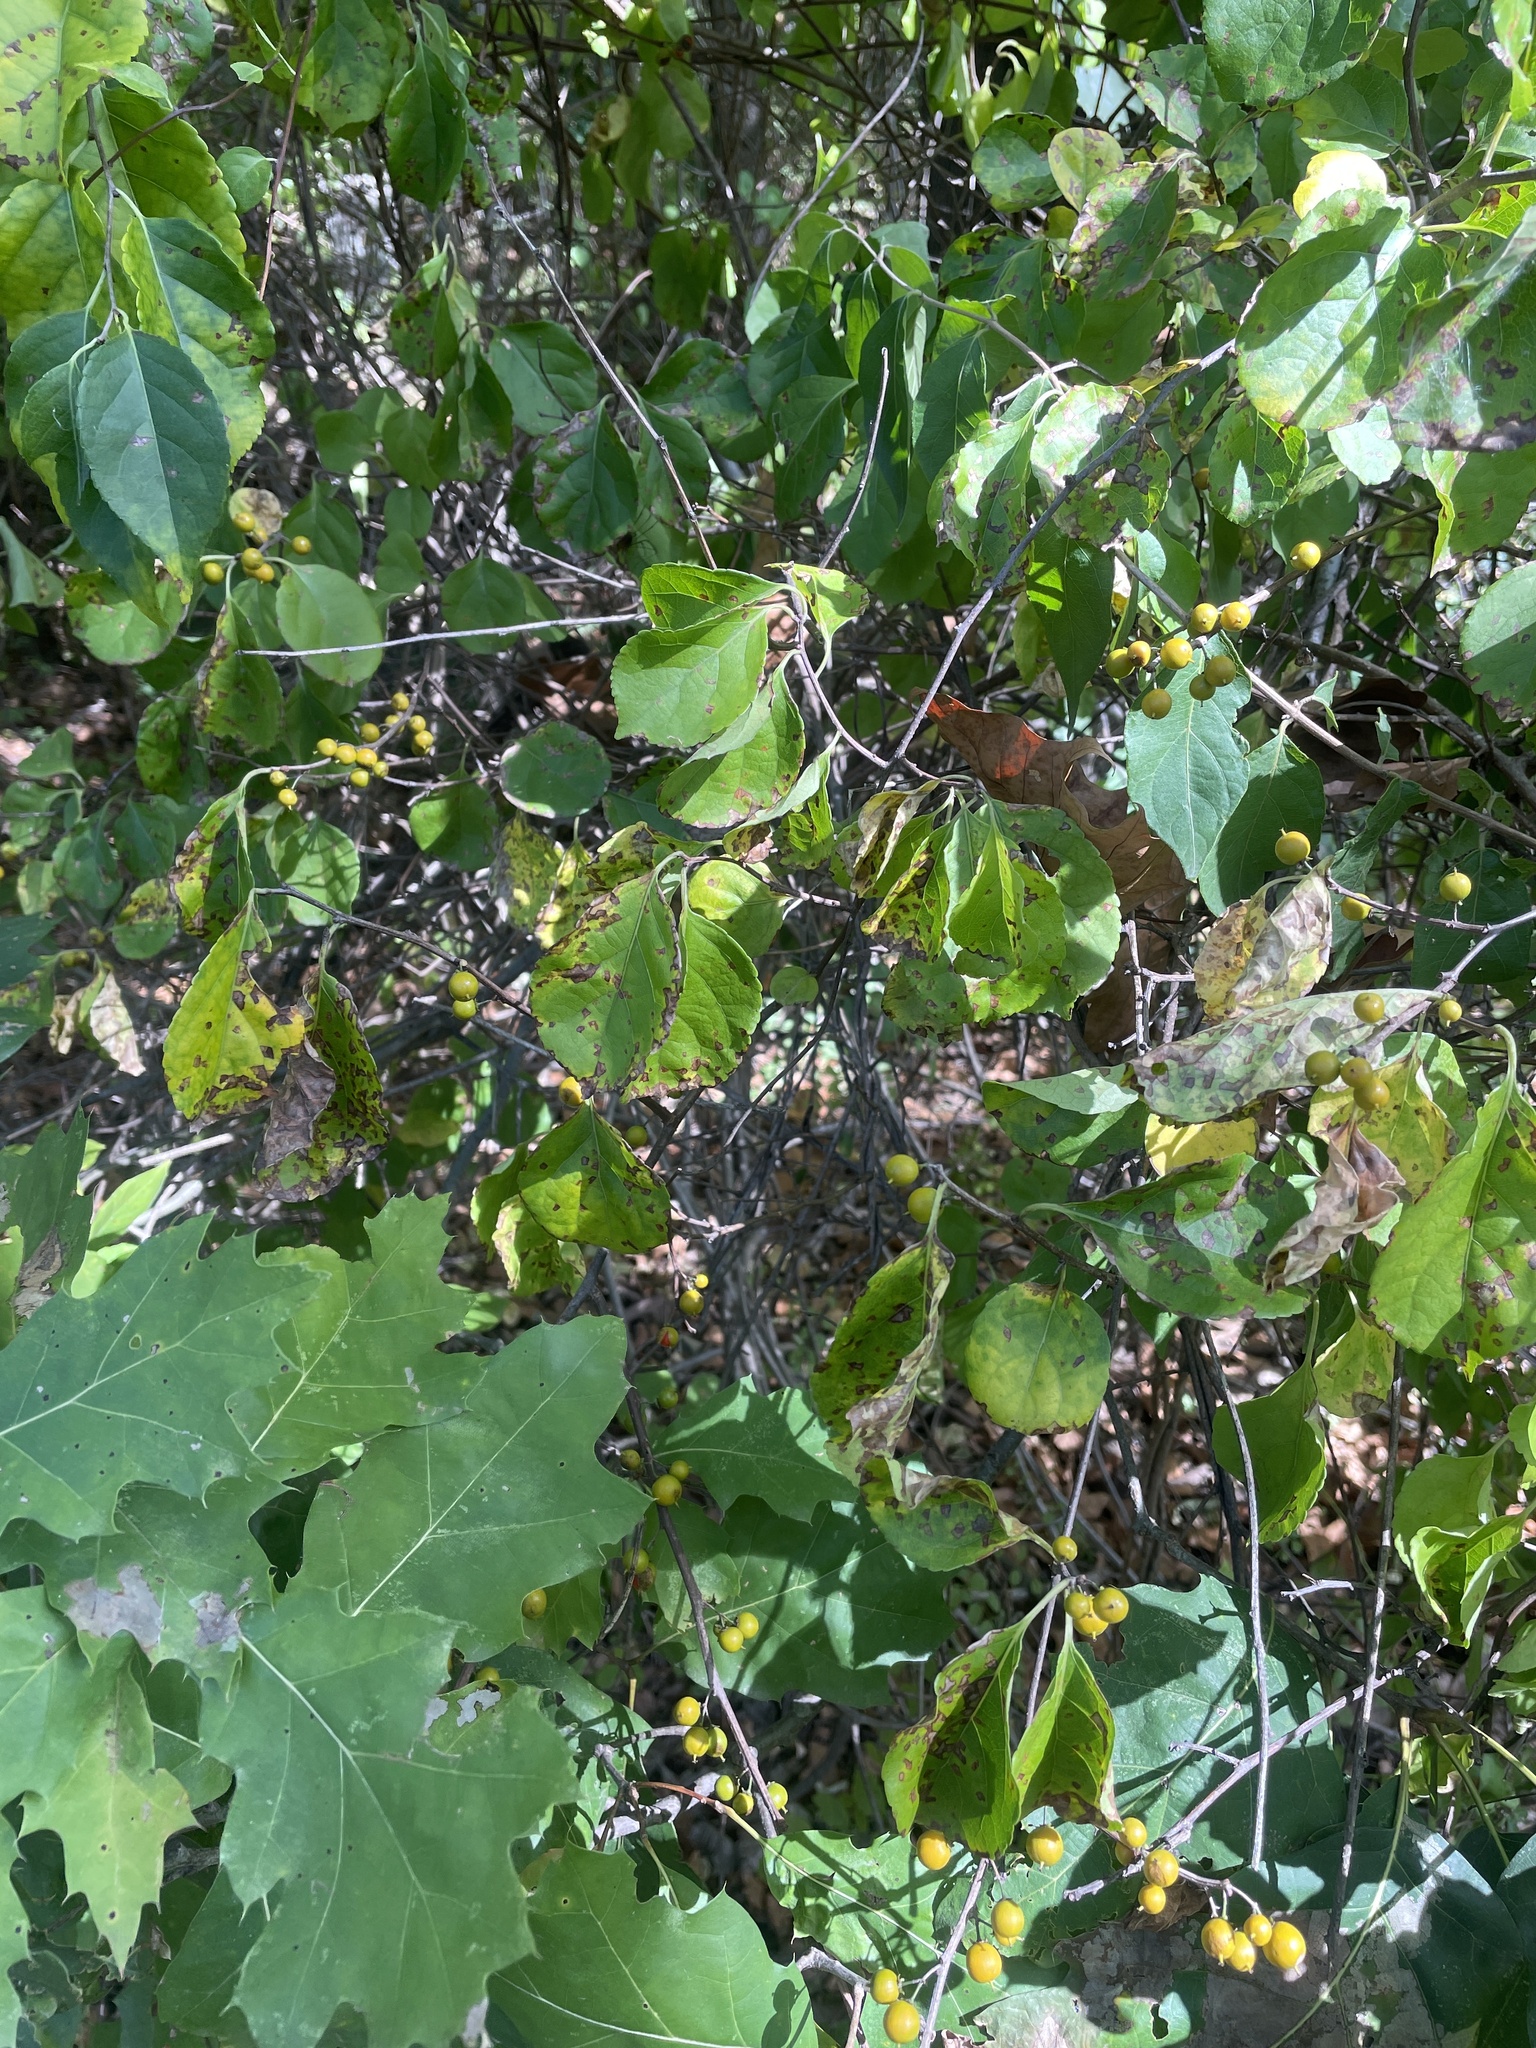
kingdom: Plantae
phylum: Tracheophyta
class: Magnoliopsida
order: Celastrales
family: Celastraceae
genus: Celastrus
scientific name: Celastrus orbiculatus
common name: Oriental bittersweet
